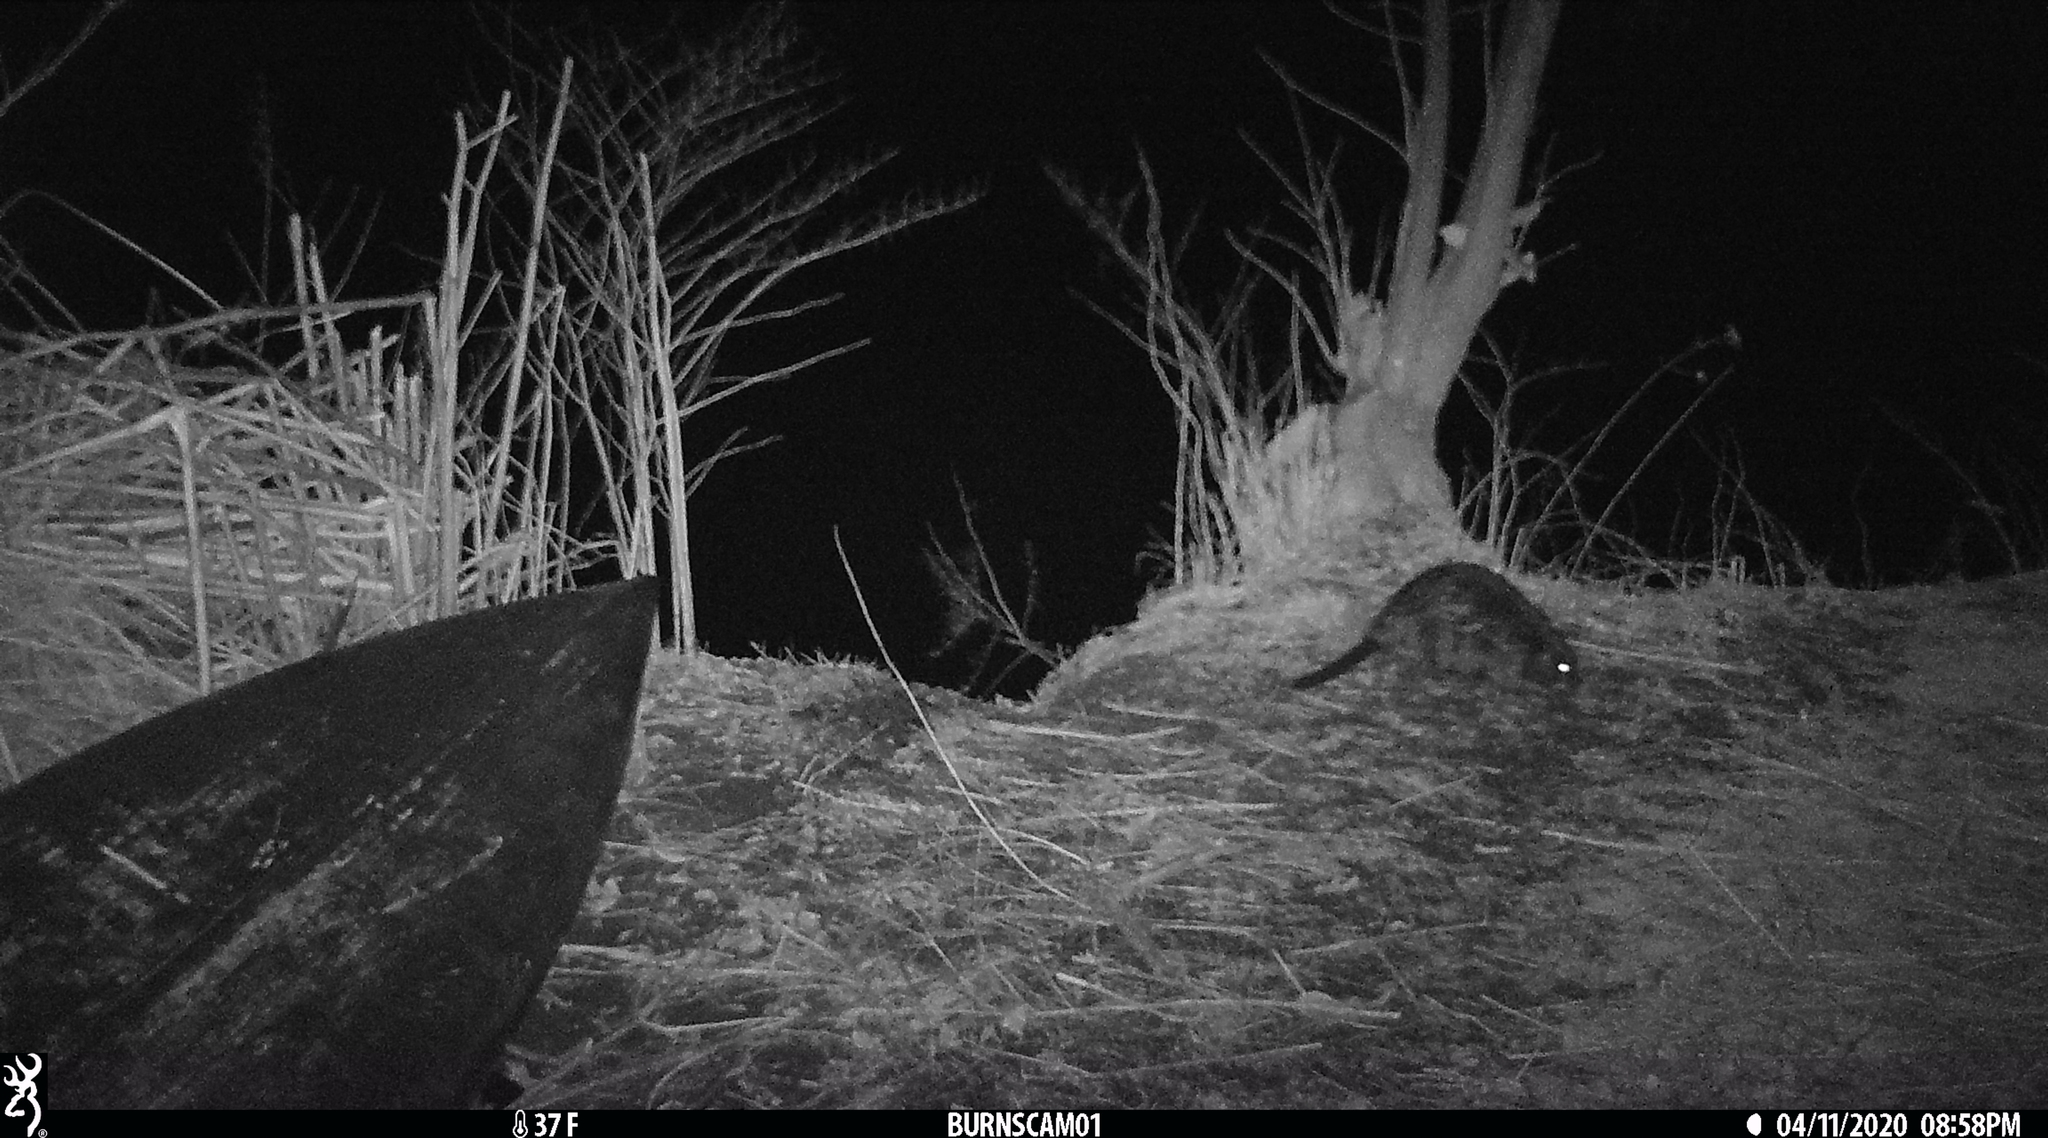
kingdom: Animalia
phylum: Chordata
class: Mammalia
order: Rodentia
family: Castoridae
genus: Castor
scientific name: Castor canadensis
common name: American beaver
